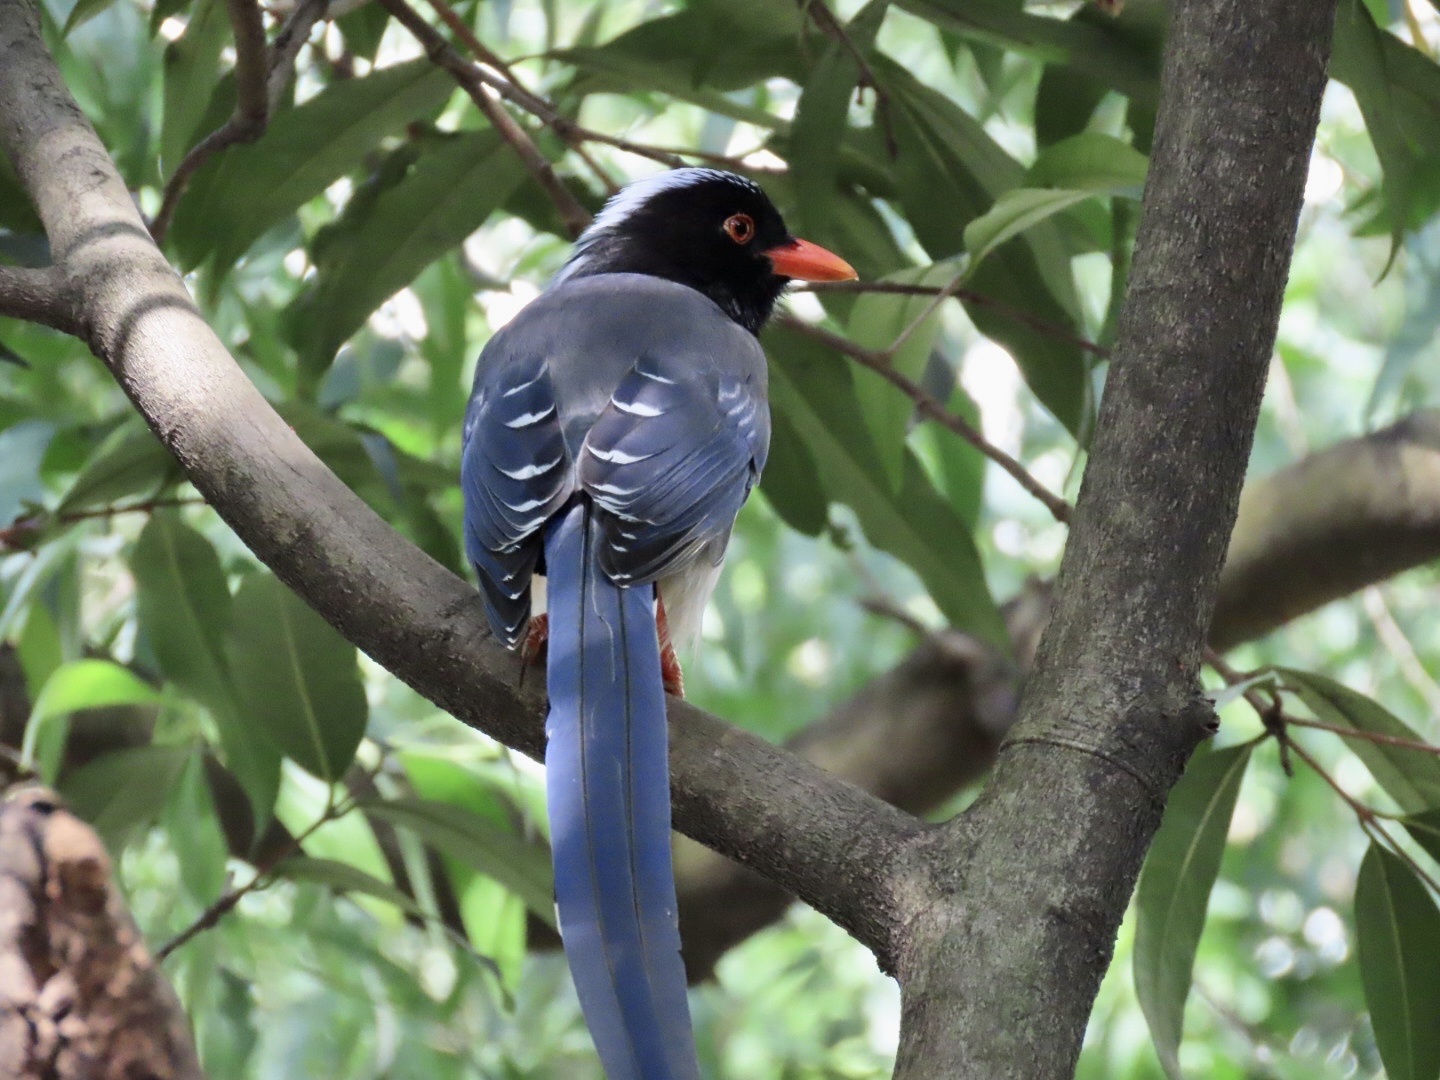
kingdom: Animalia
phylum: Chordata
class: Aves
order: Passeriformes
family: Corvidae
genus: Urocissa
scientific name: Urocissa erythroryncha
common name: Red-billed blue magpie
